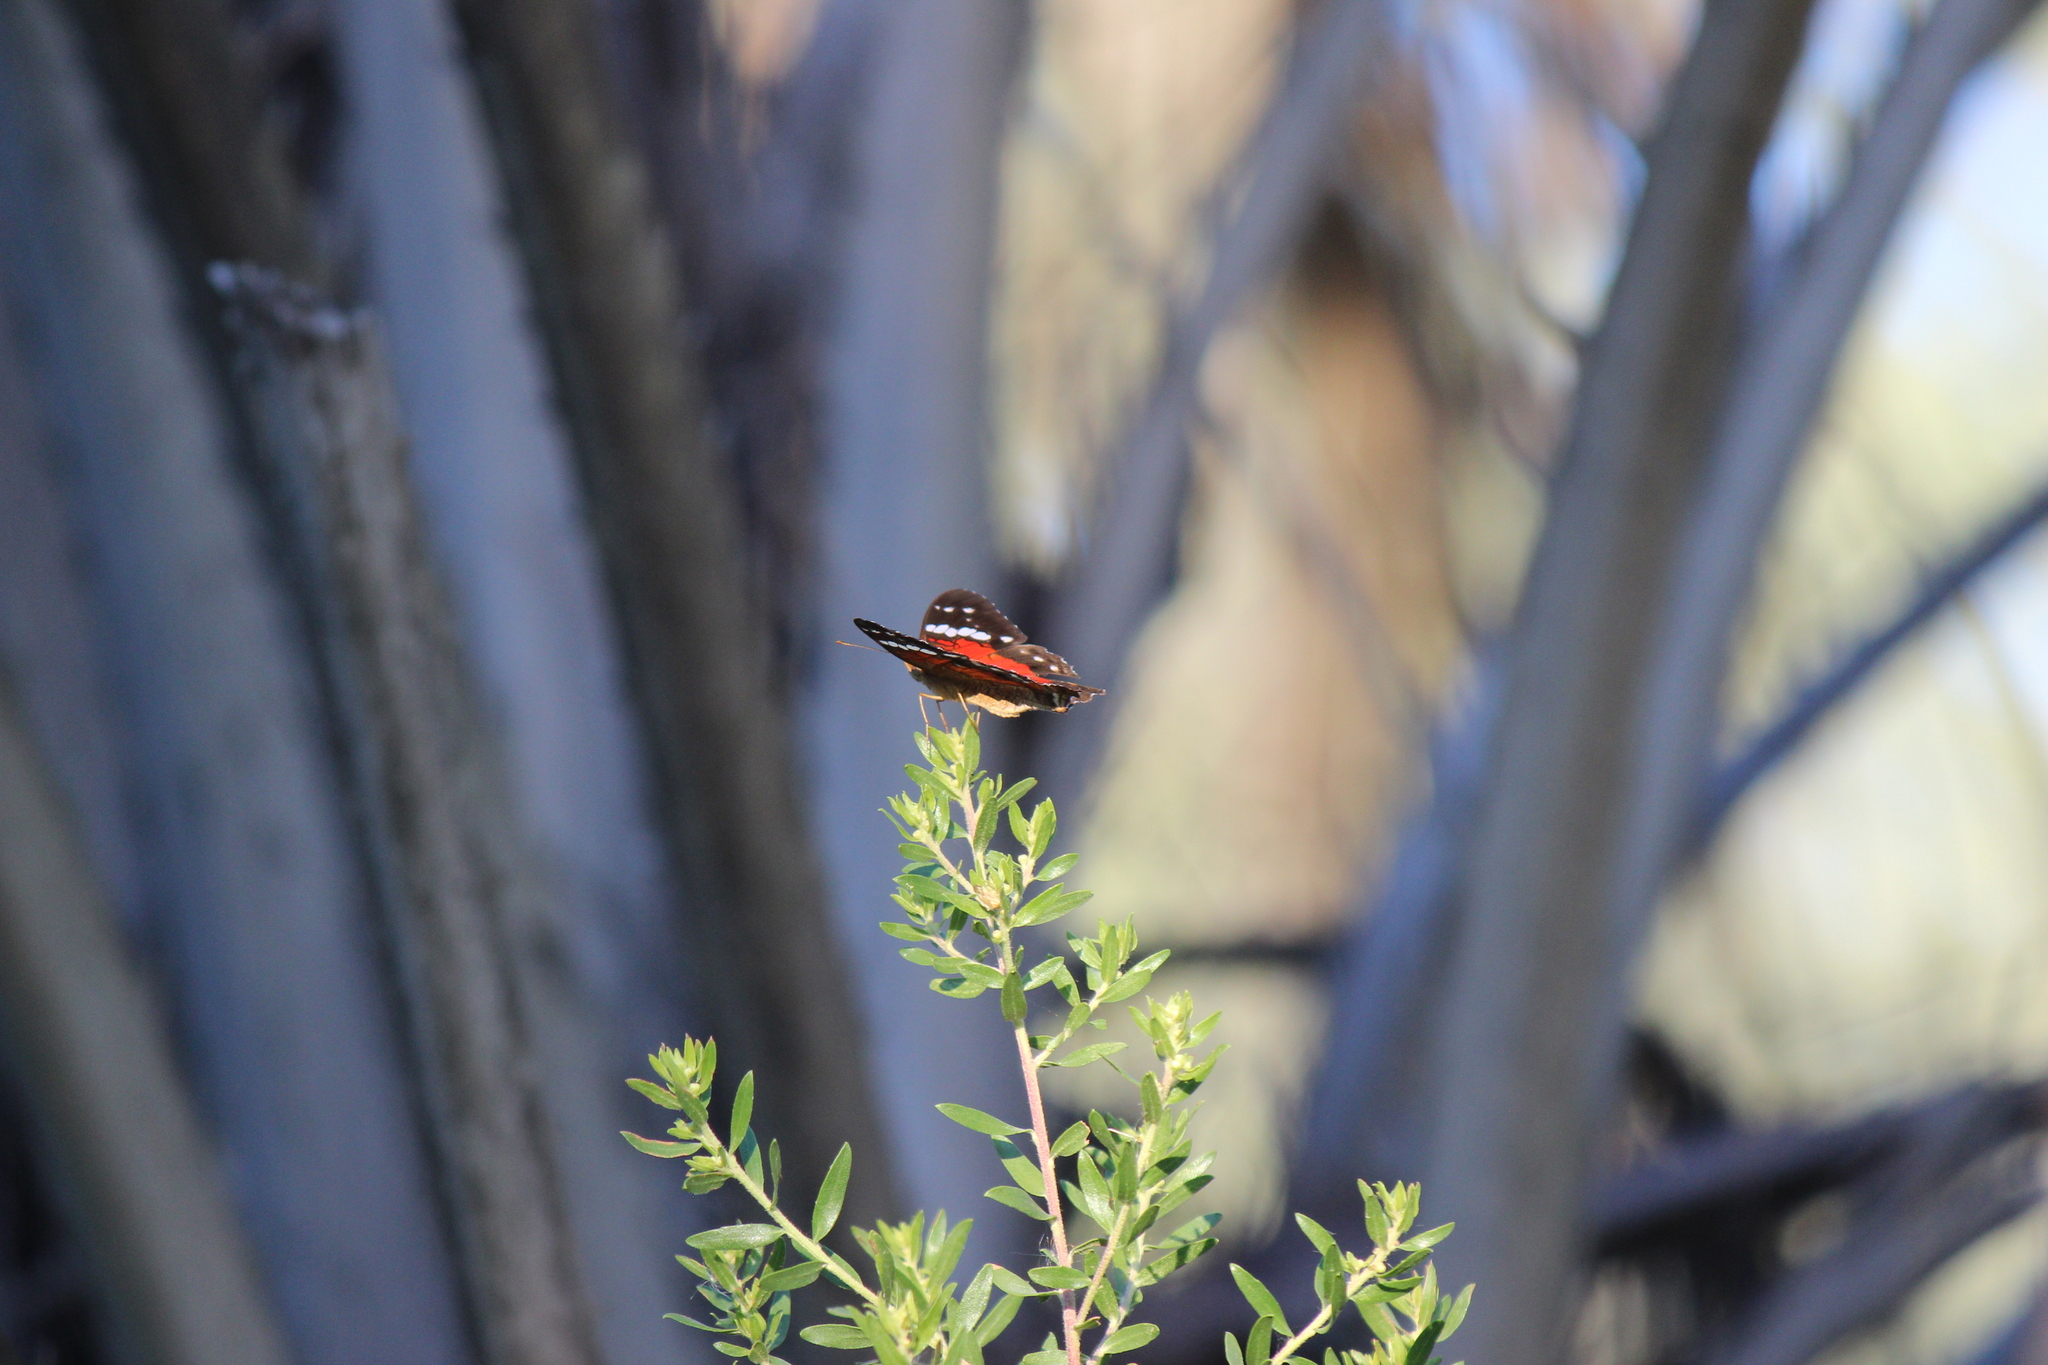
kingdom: Animalia
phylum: Arthropoda
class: Insecta
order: Lepidoptera
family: Nymphalidae
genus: Anartia
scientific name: Anartia amathea
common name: Red peacock
